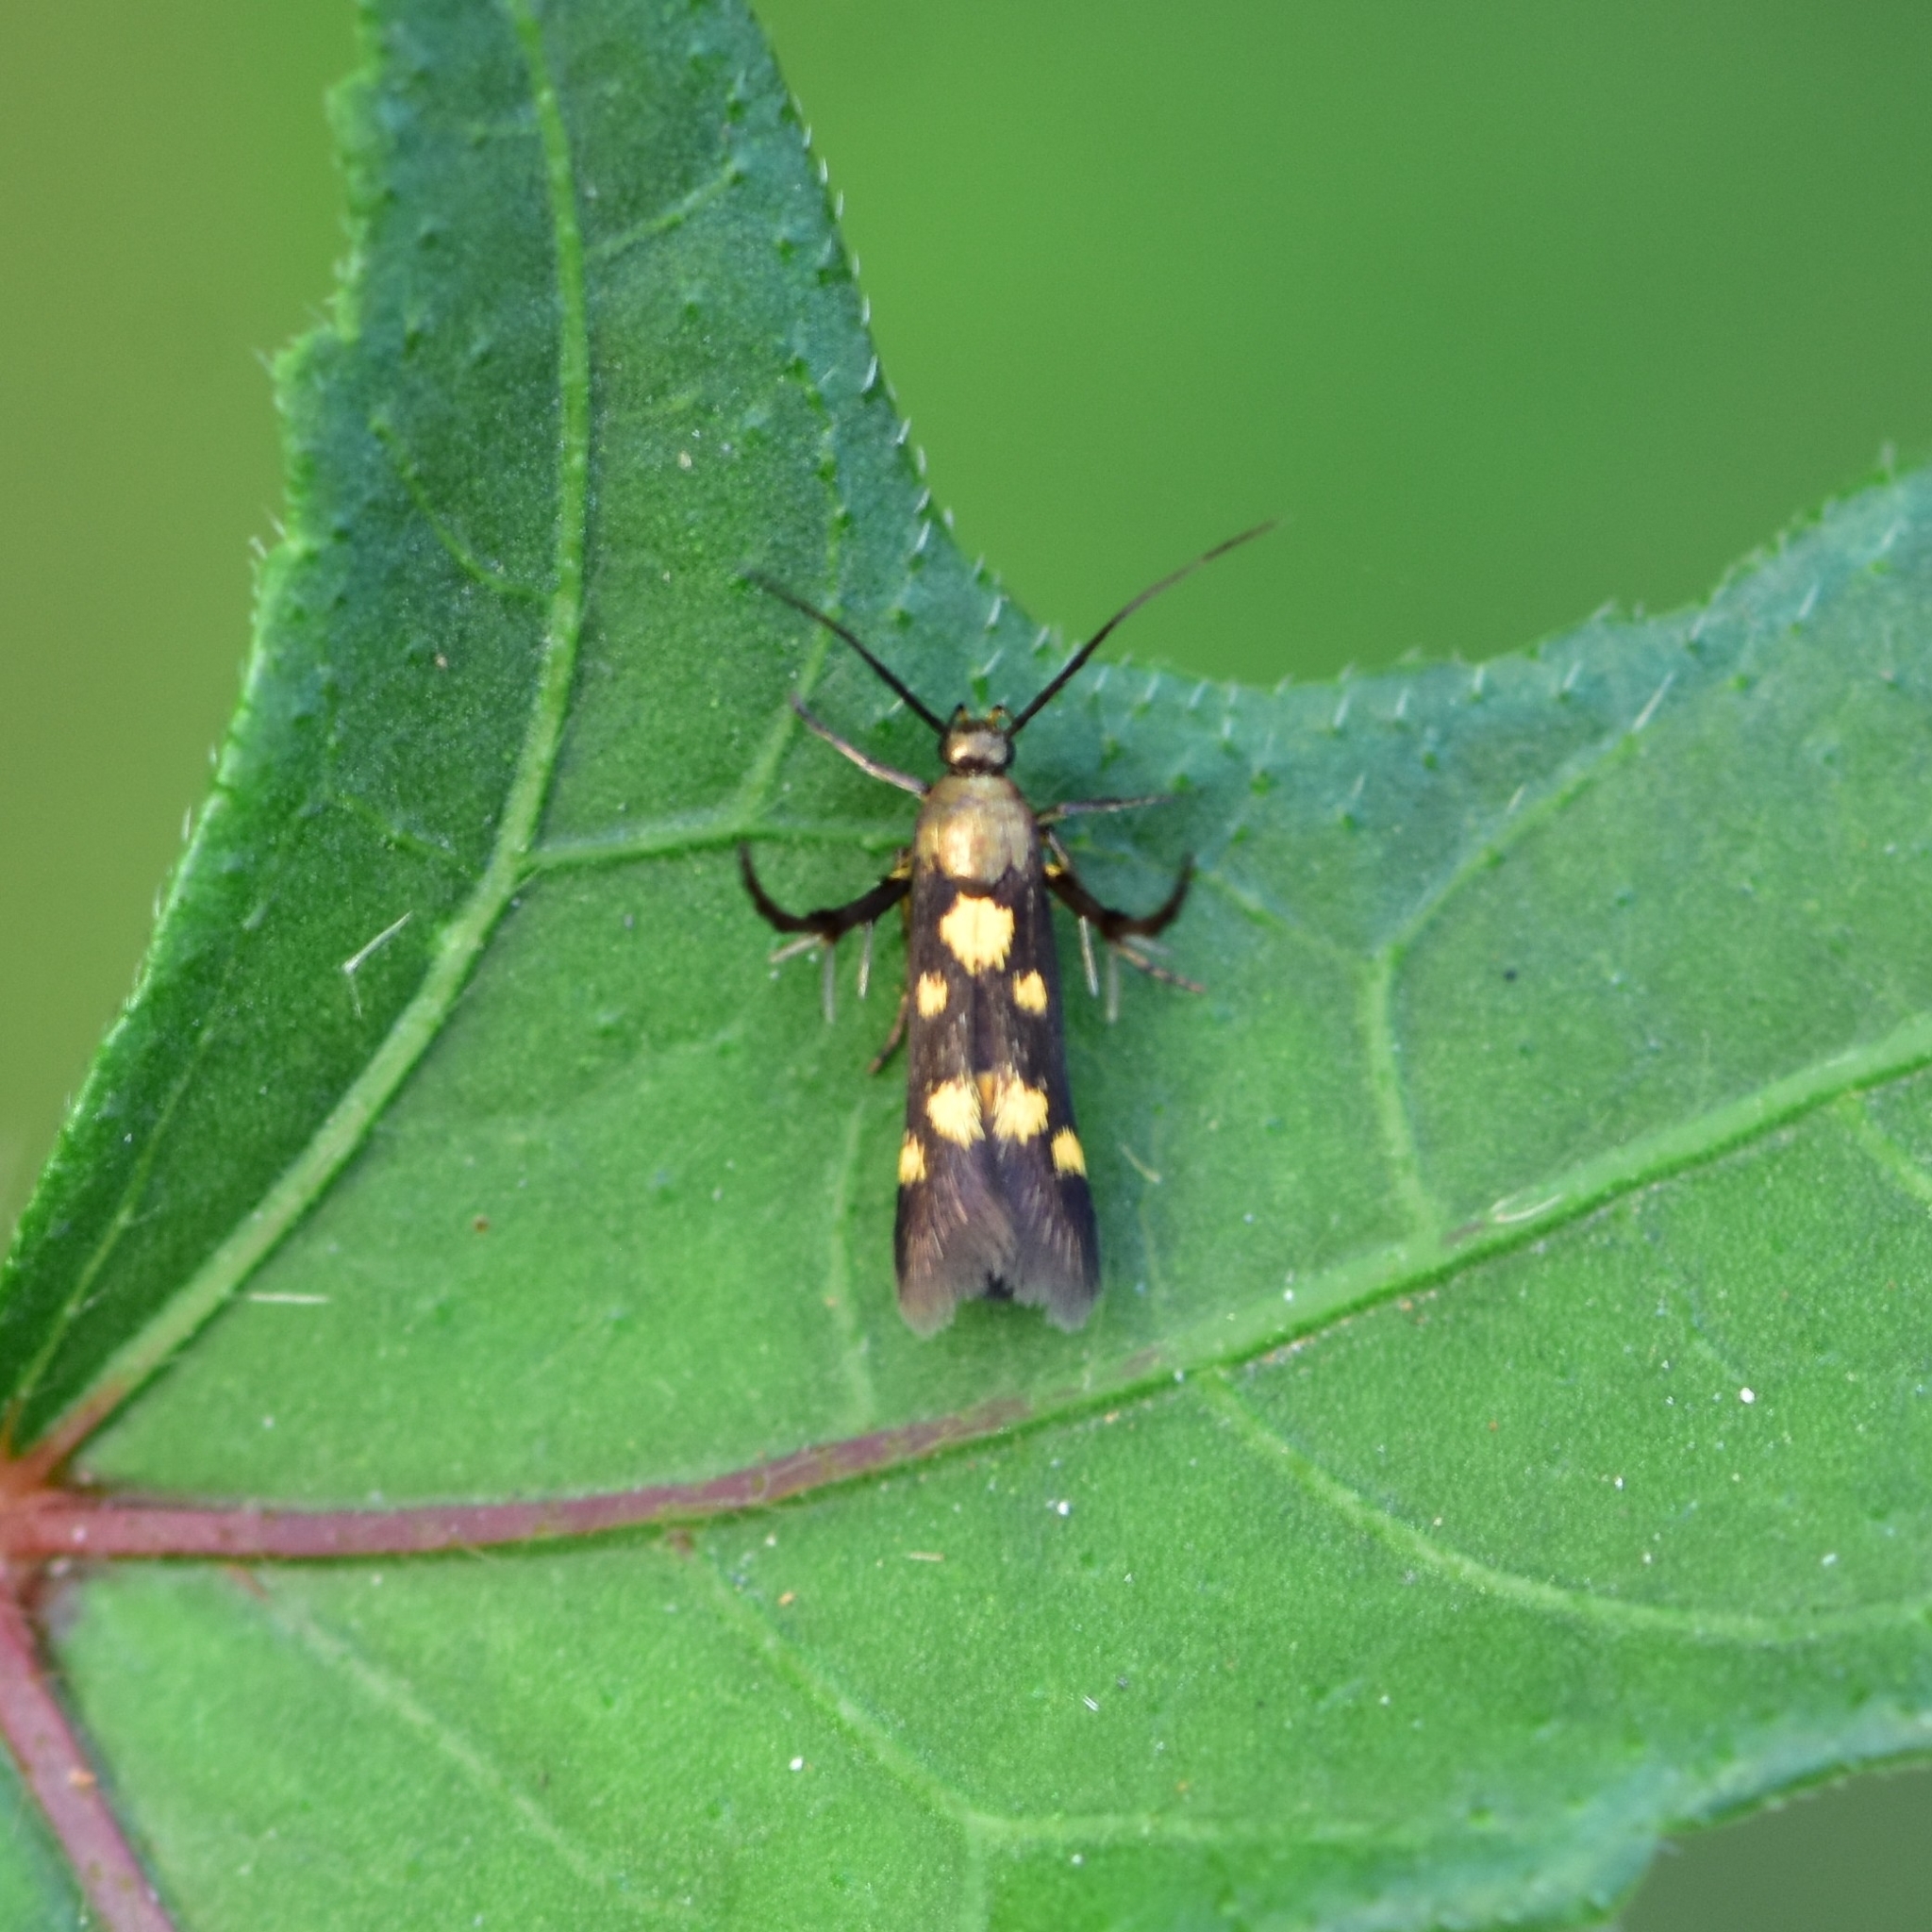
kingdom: Animalia
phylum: Arthropoda
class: Insecta
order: Lepidoptera
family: Scythrididae
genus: Eretmocera
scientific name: Eretmocera impactella
